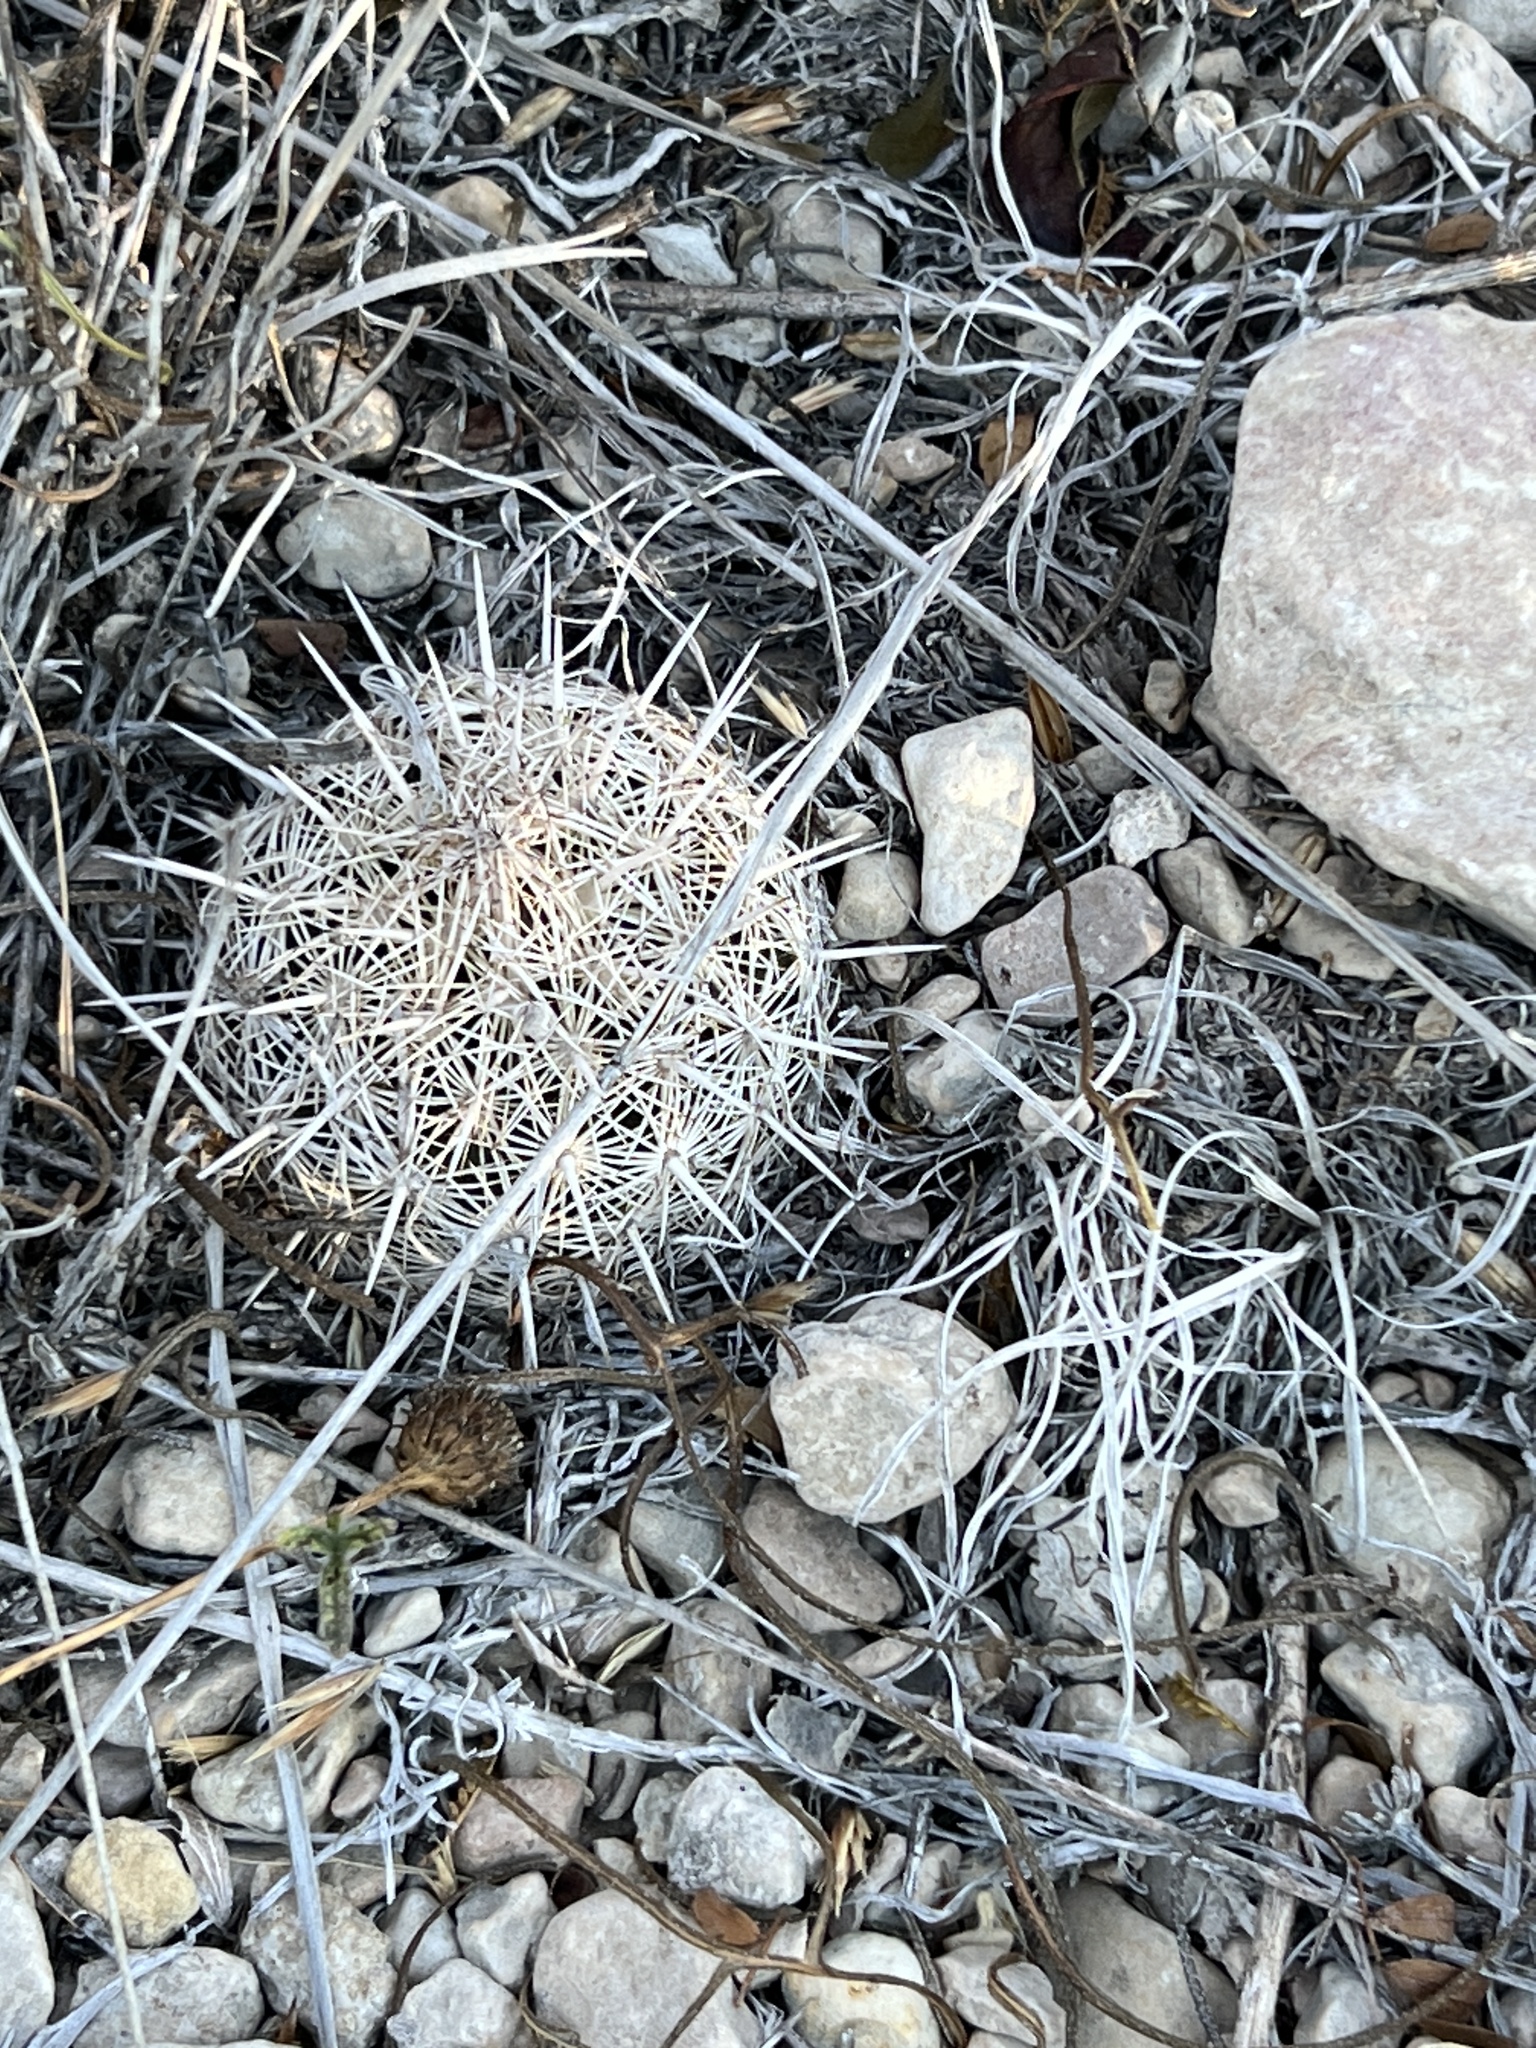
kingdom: Plantae
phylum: Tracheophyta
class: Magnoliopsida
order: Caryophyllales
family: Cactaceae
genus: Coryphantha
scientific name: Coryphantha echinus
